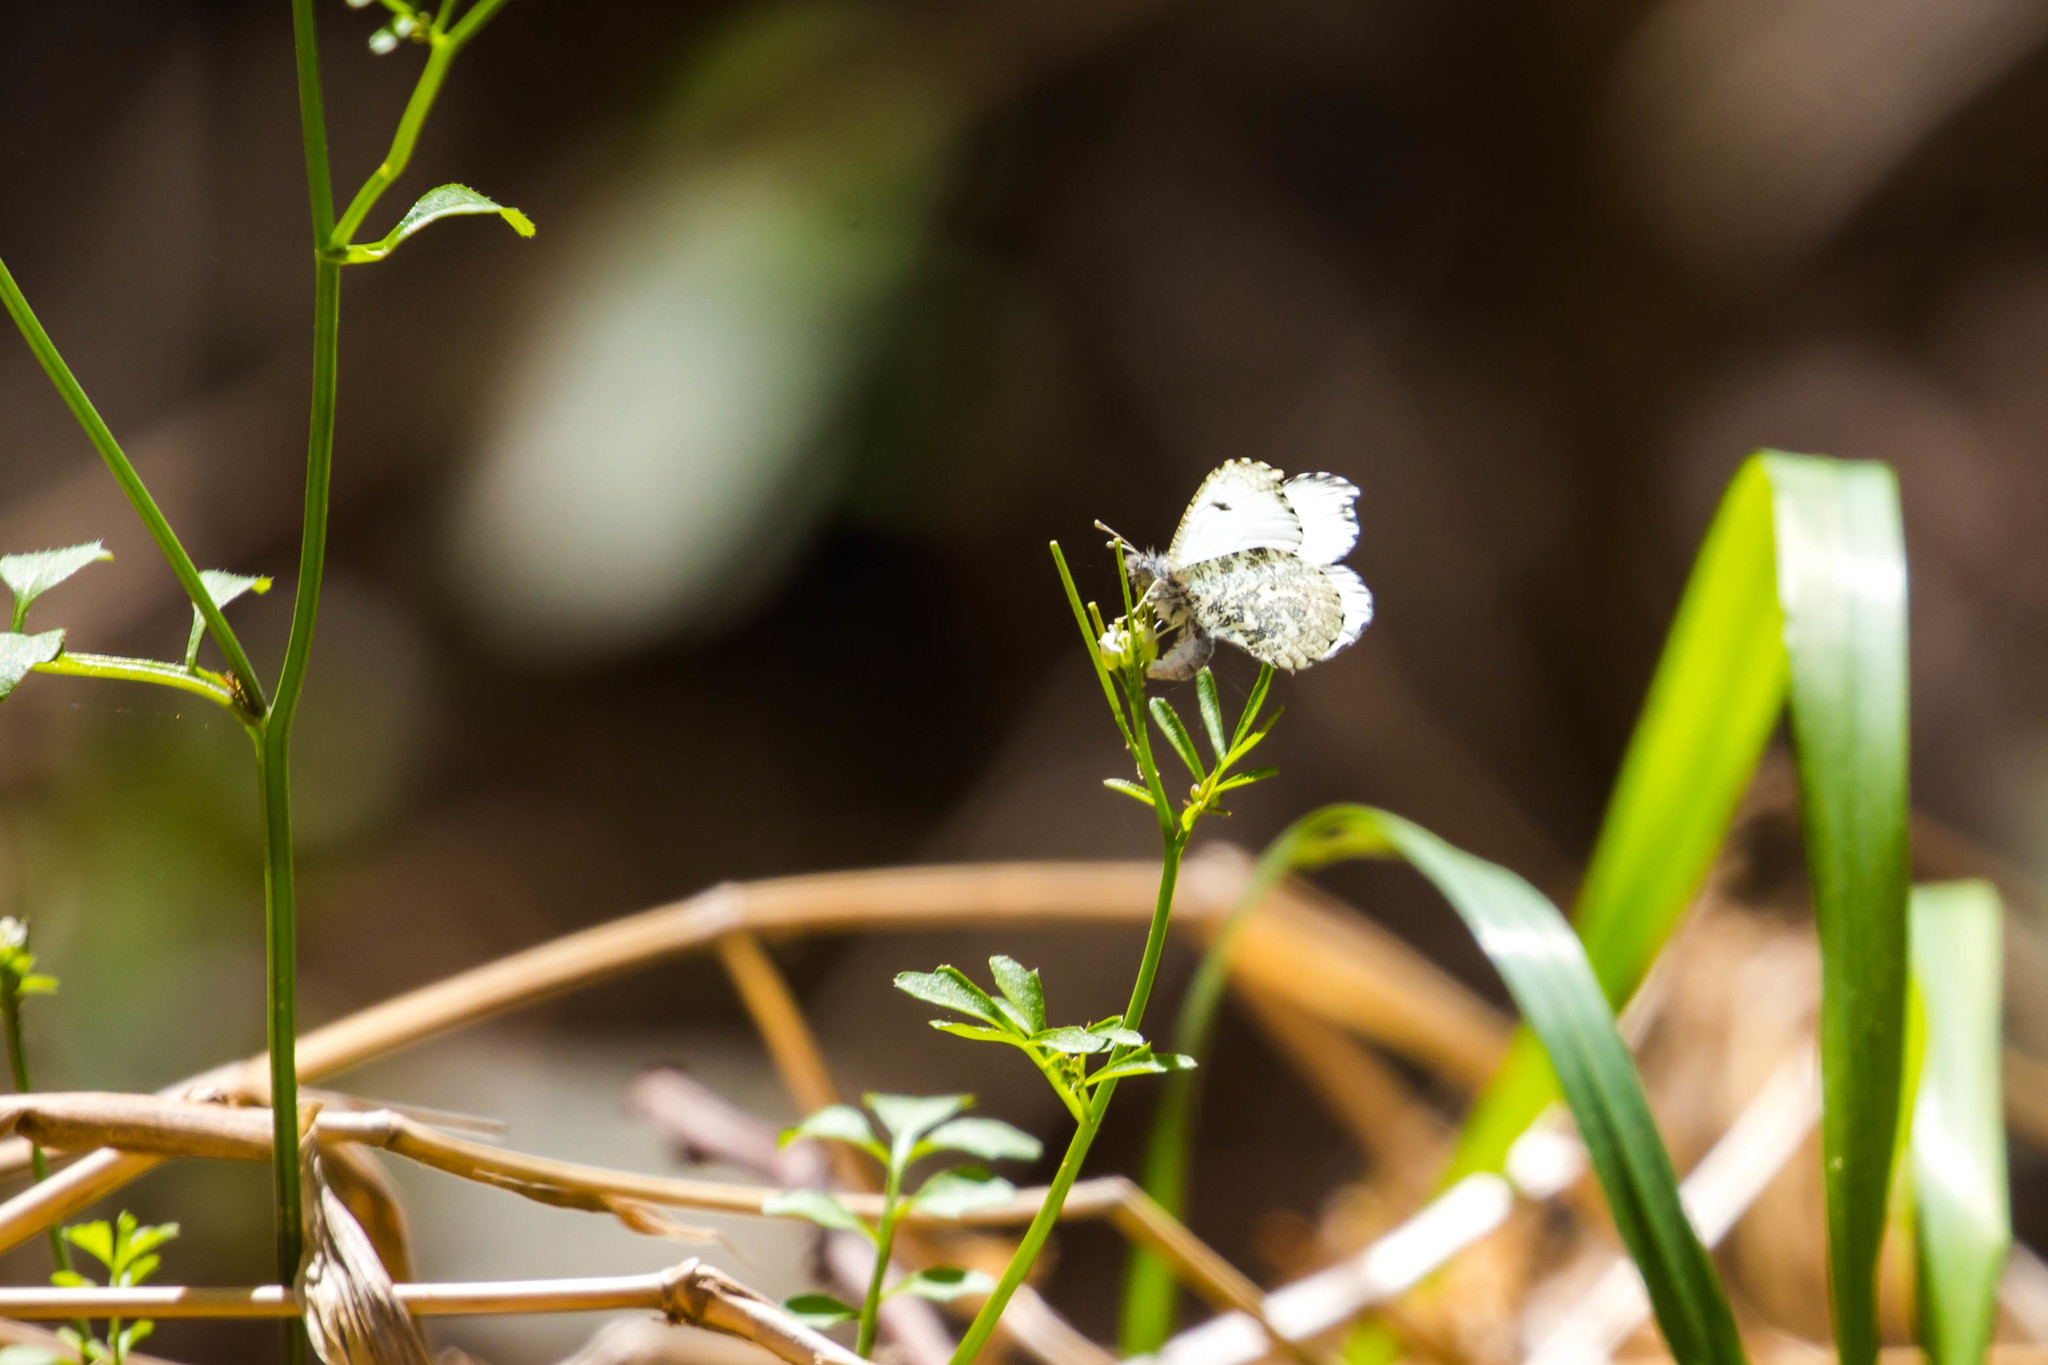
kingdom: Animalia
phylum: Arthropoda
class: Insecta
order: Lepidoptera
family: Pieridae
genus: Anthocharis
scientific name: Anthocharis midea
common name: Falcate orangetip
